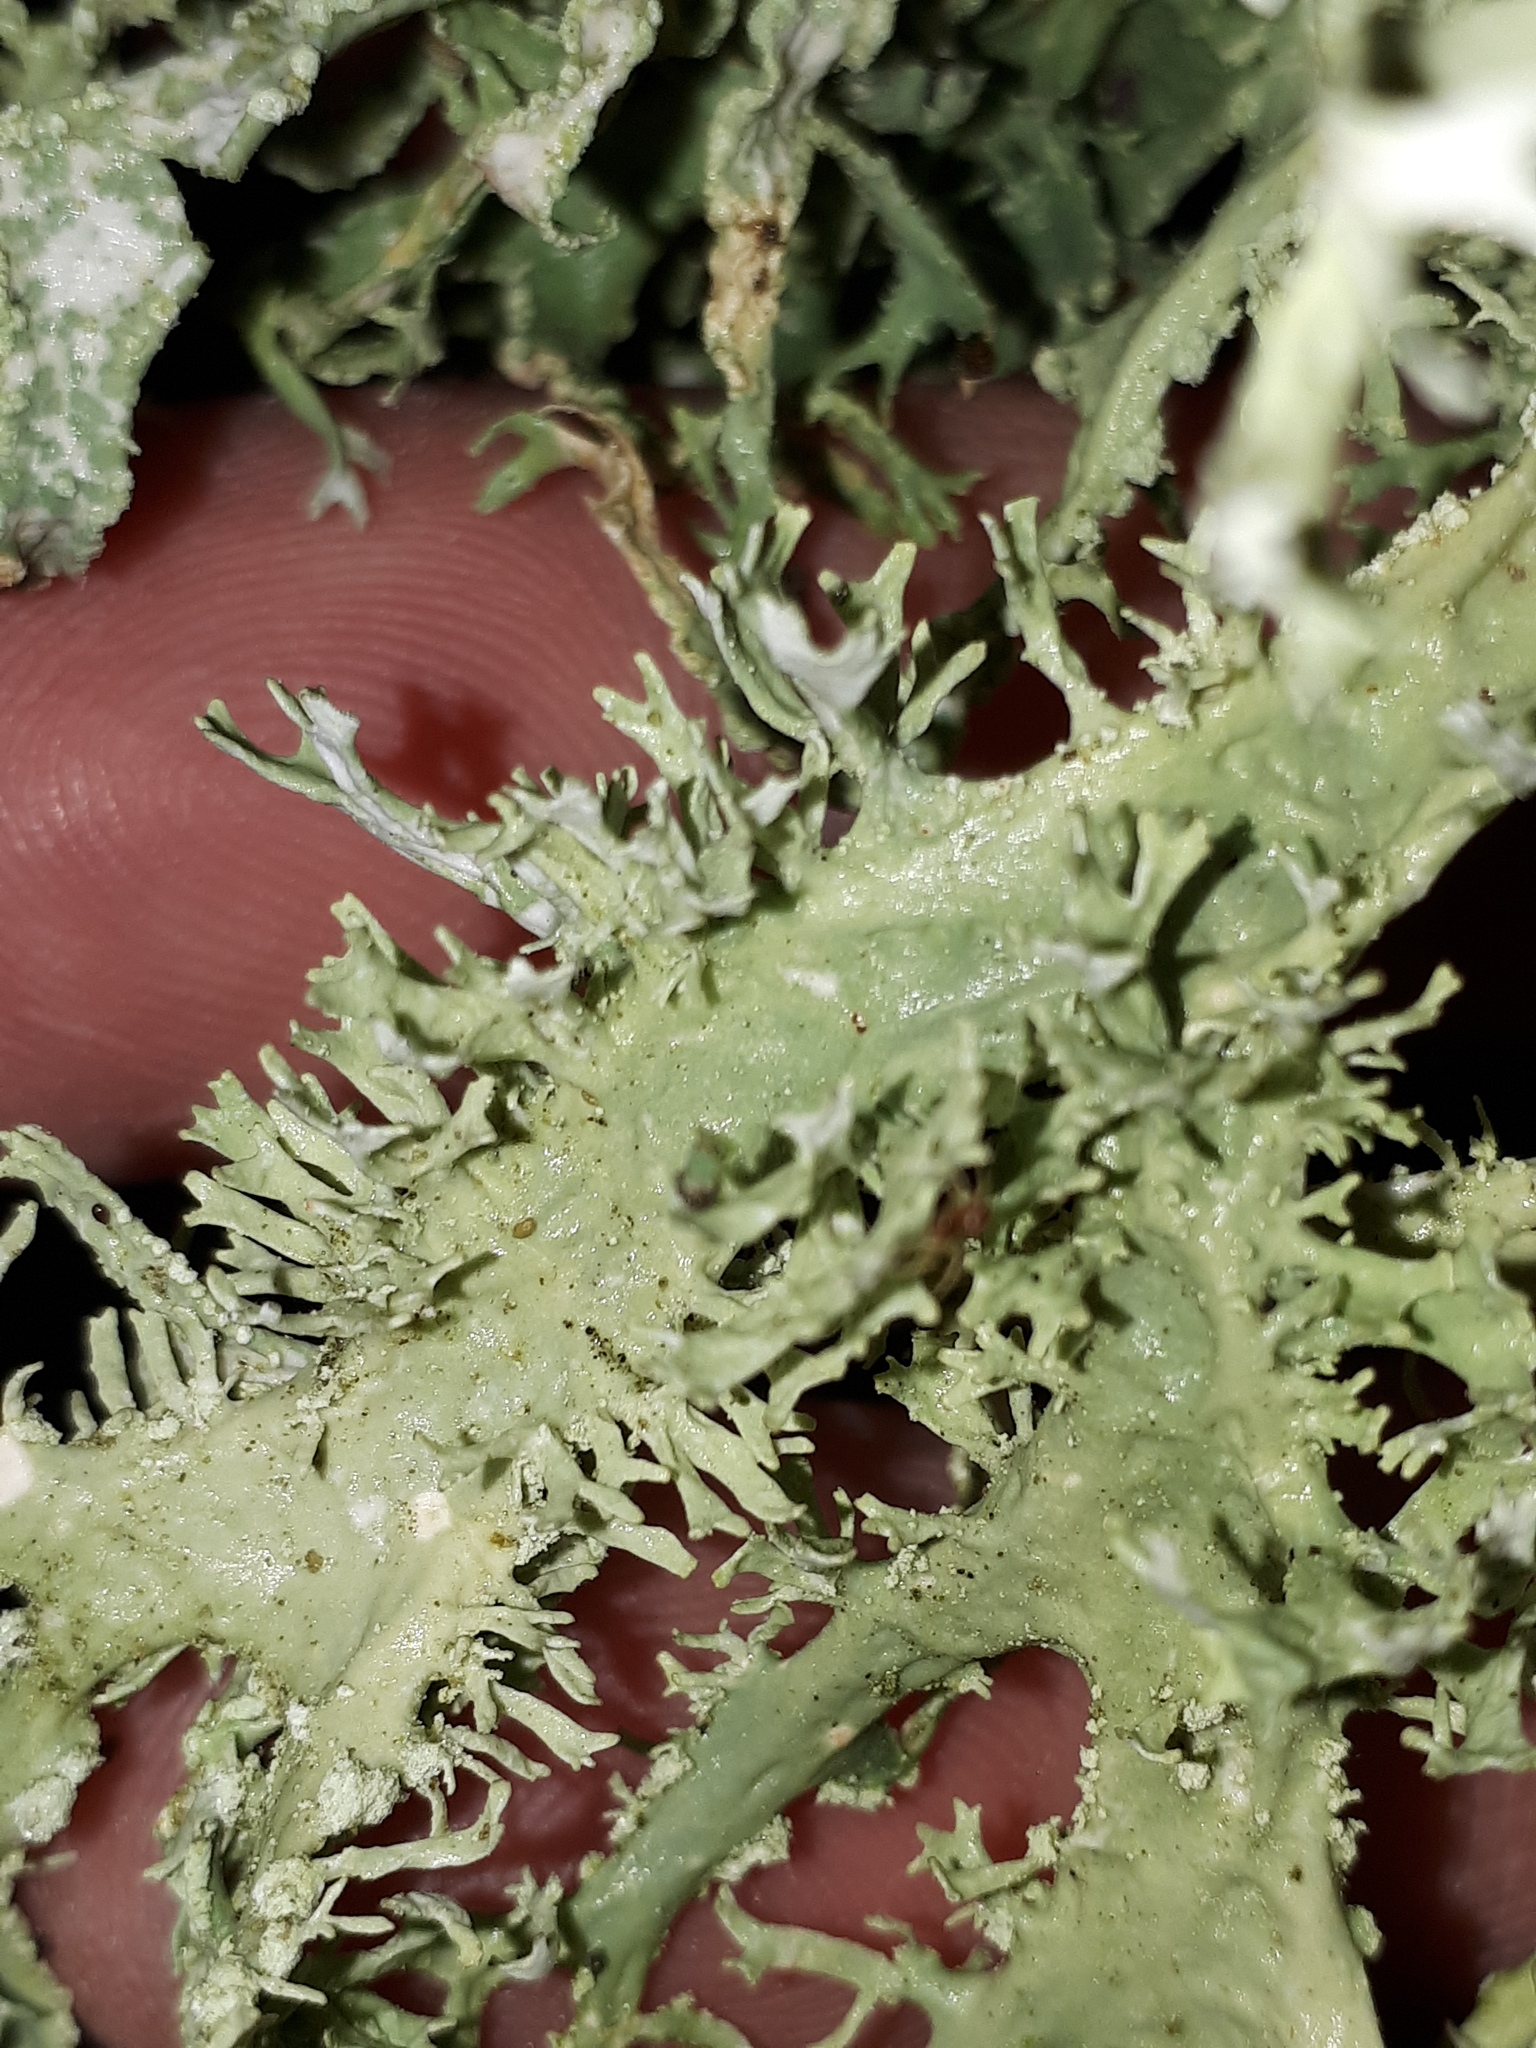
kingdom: Fungi
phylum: Ascomycota
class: Lecanoromycetes
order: Lecanorales
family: Parmeliaceae
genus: Evernia
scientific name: Evernia prunastri
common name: Oak moss
